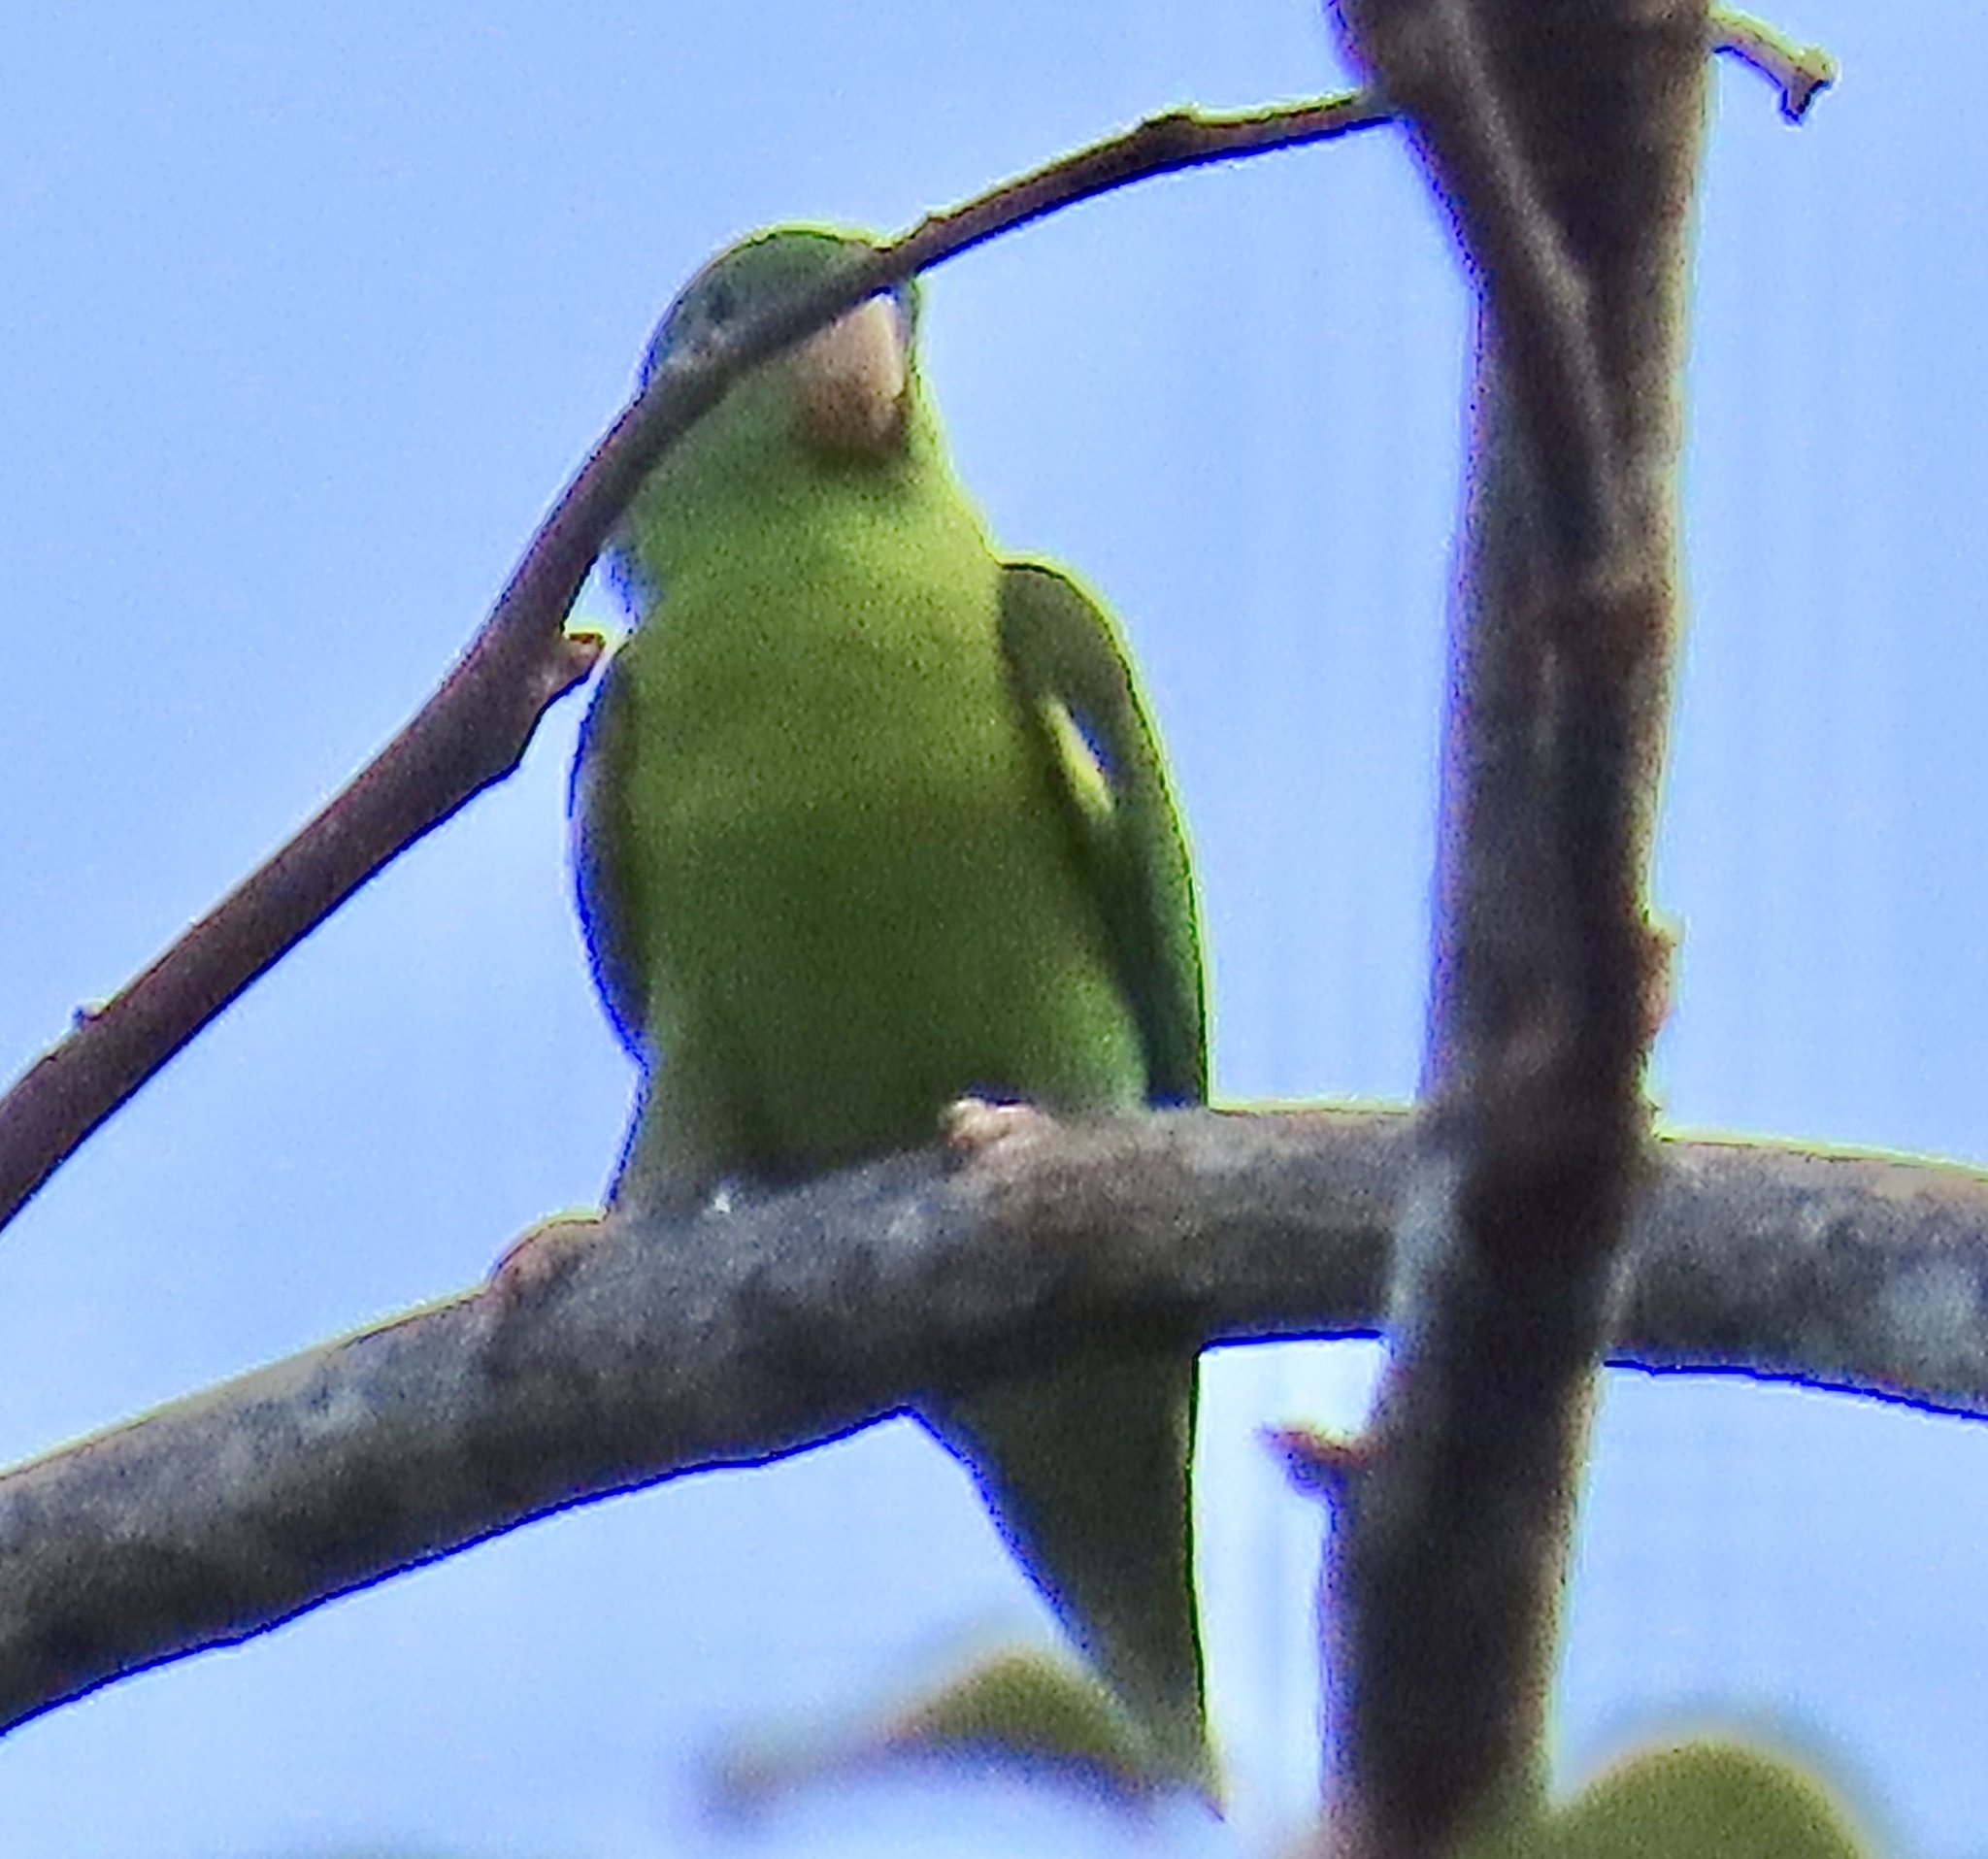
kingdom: Animalia
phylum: Chordata
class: Aves
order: Psittaciformes
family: Psittacidae
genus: Brotogeris
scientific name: Brotogeris jugularis
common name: Orange-chinned parakeet
